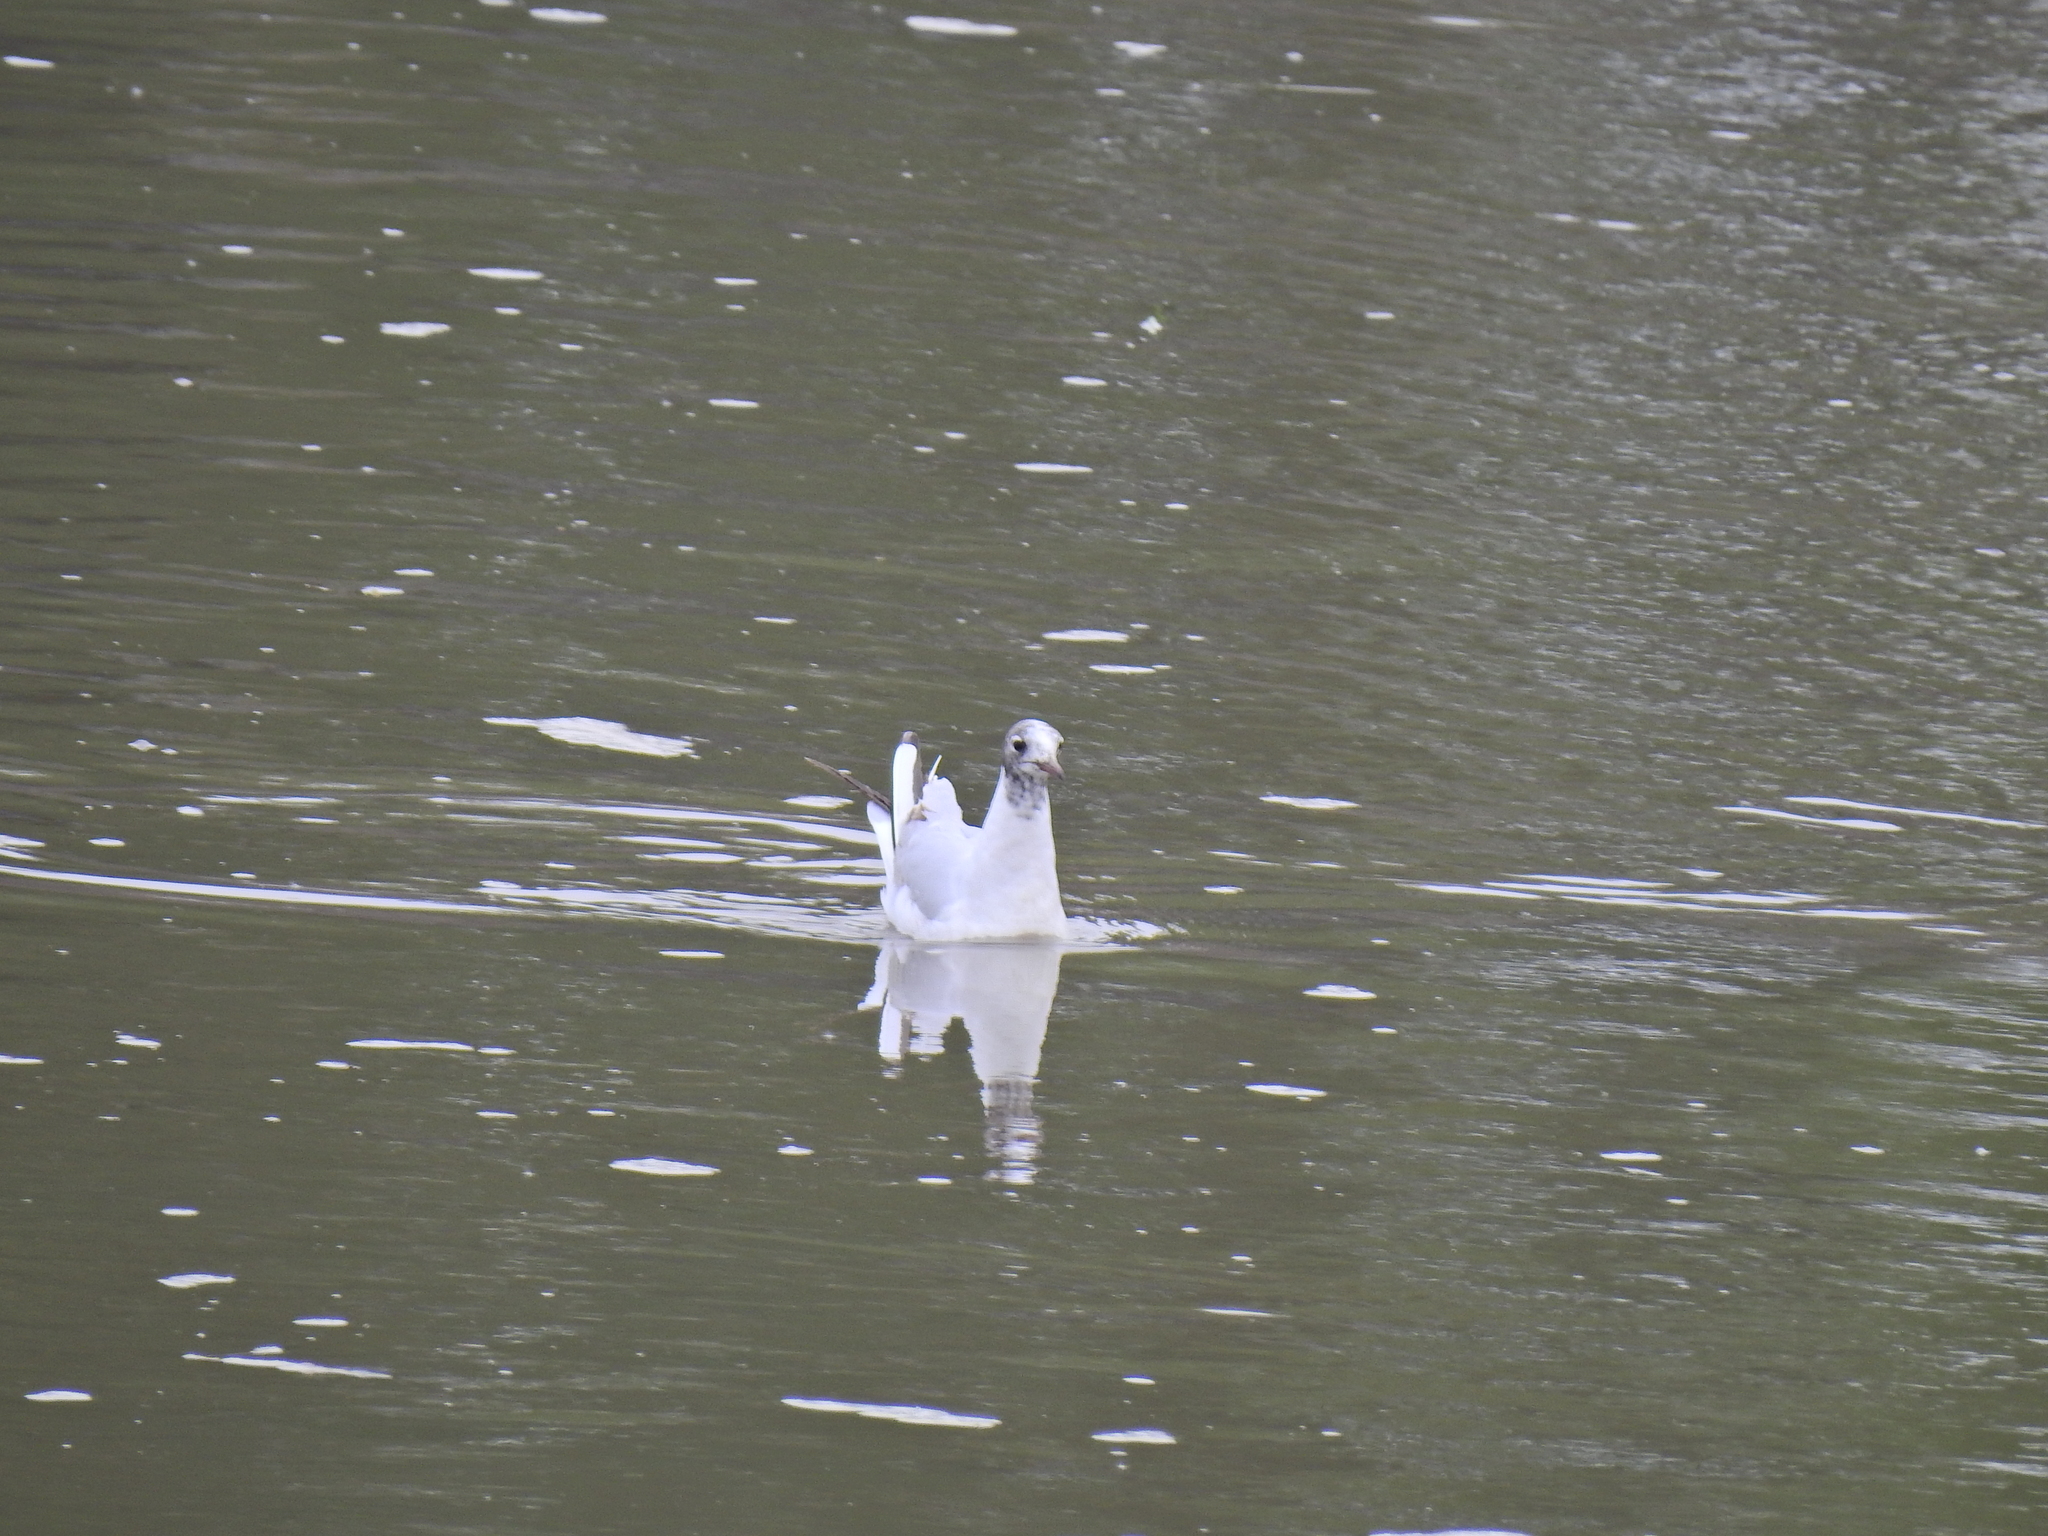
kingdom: Animalia
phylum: Chordata
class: Aves
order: Charadriiformes
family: Laridae
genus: Chroicocephalus
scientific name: Chroicocephalus ridibundus
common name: Black-headed gull
